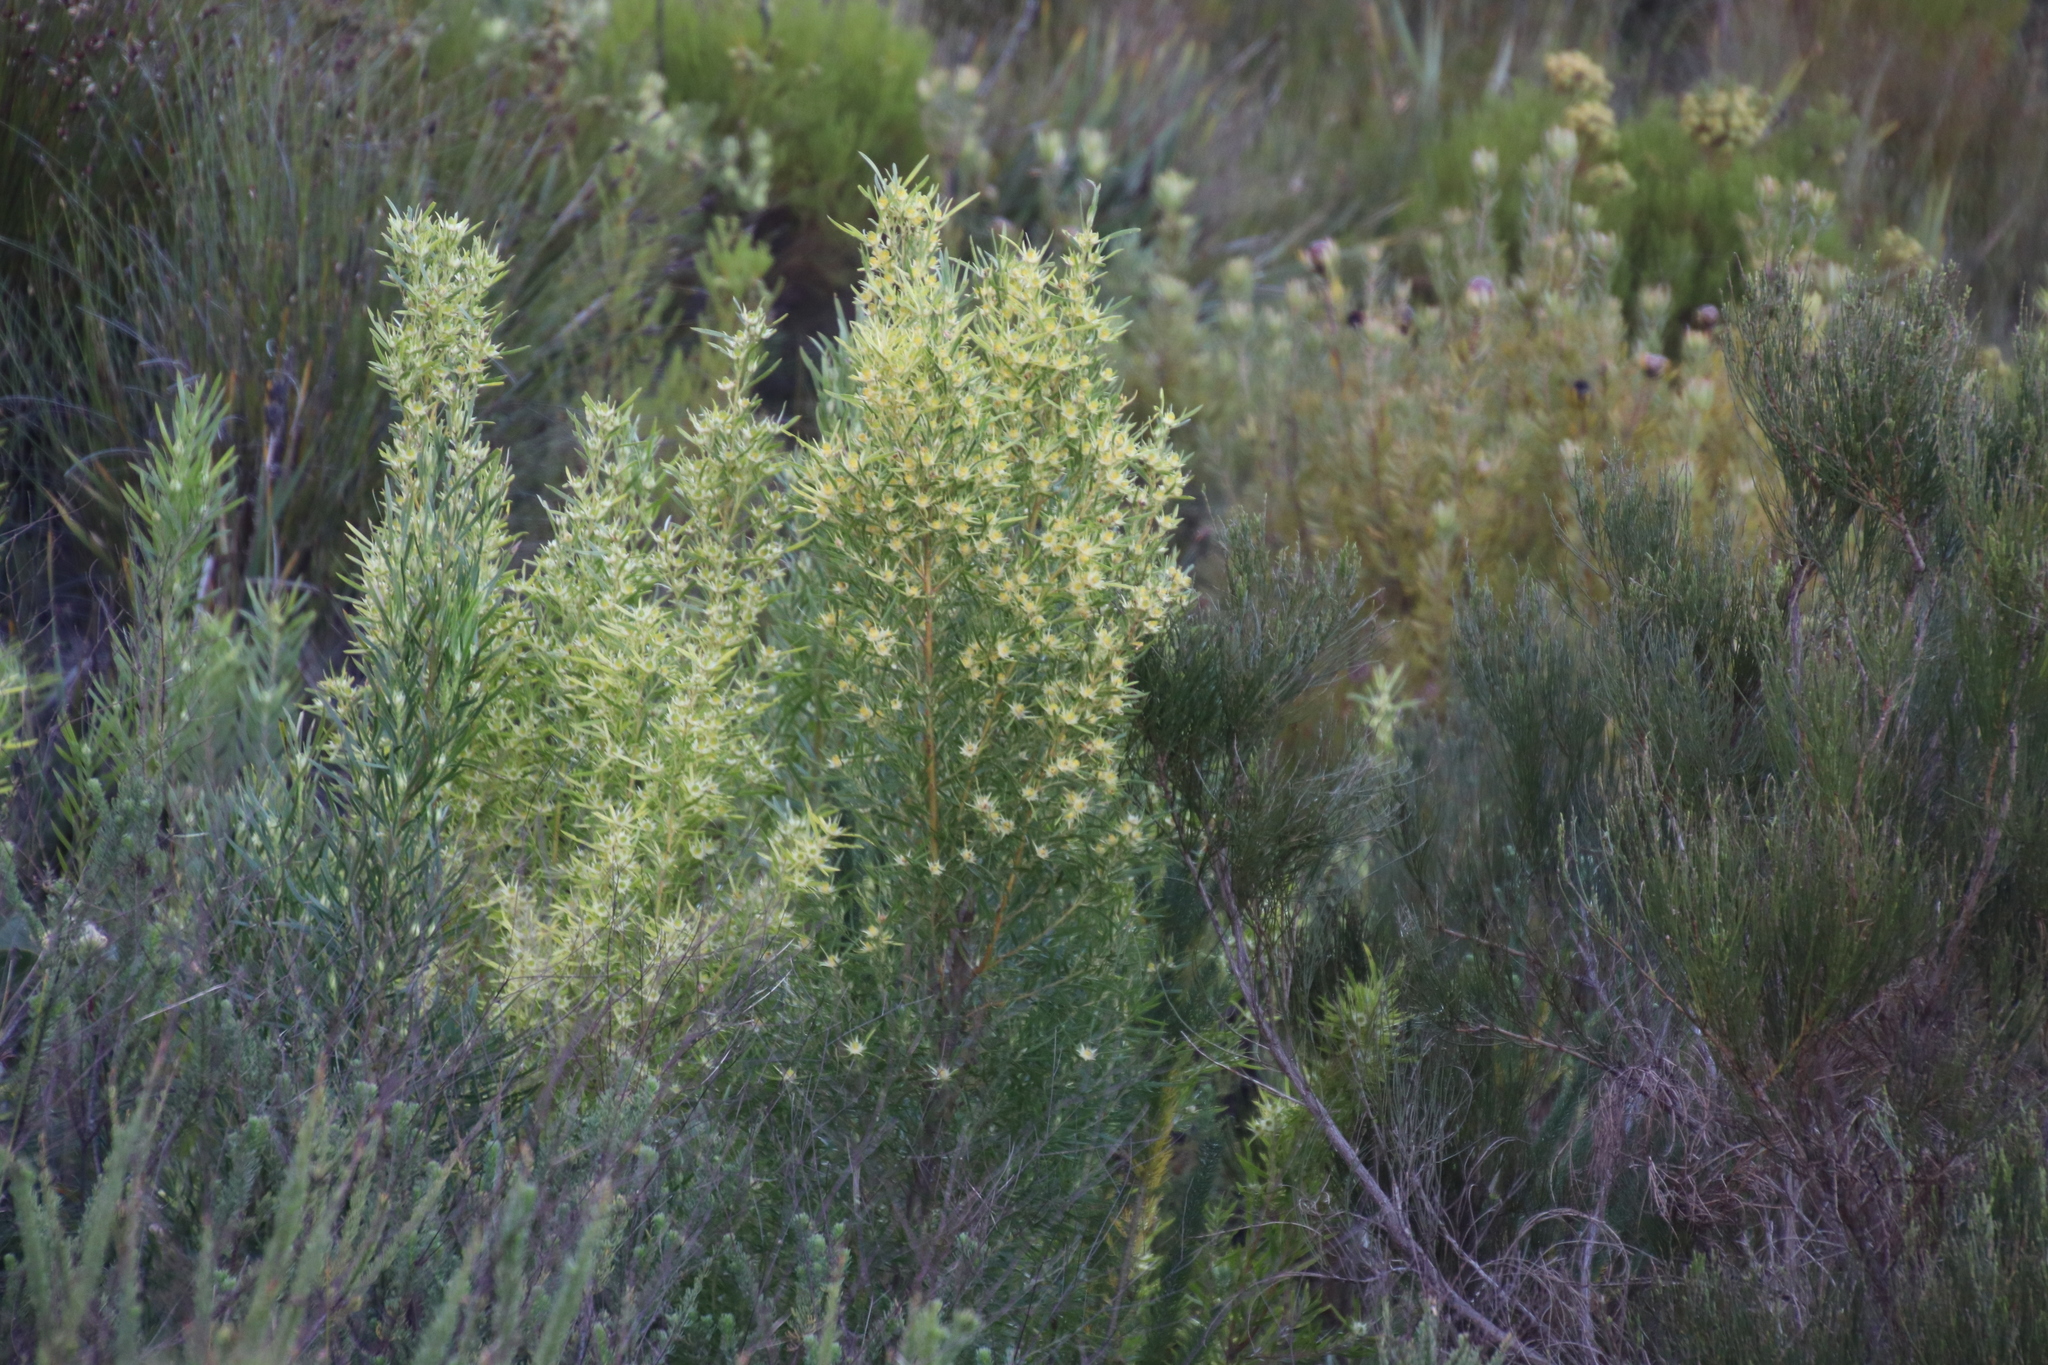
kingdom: Plantae
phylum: Tracheophyta
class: Magnoliopsida
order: Proteales
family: Proteaceae
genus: Leucadendron
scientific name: Leucadendron salicifolium
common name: Common stream conebush
